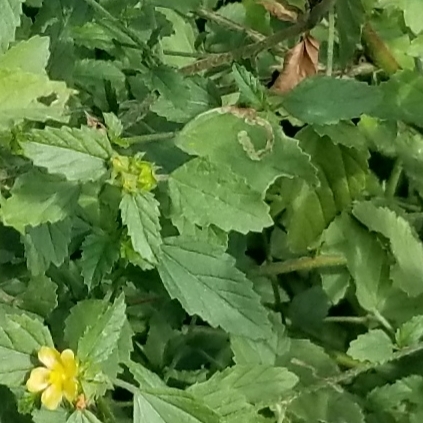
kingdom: Animalia
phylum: Arthropoda
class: Insecta
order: Diptera
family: Agromyzidae
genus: Calycomyza
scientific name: Calycomyza malvae
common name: Mallow leaf miner
